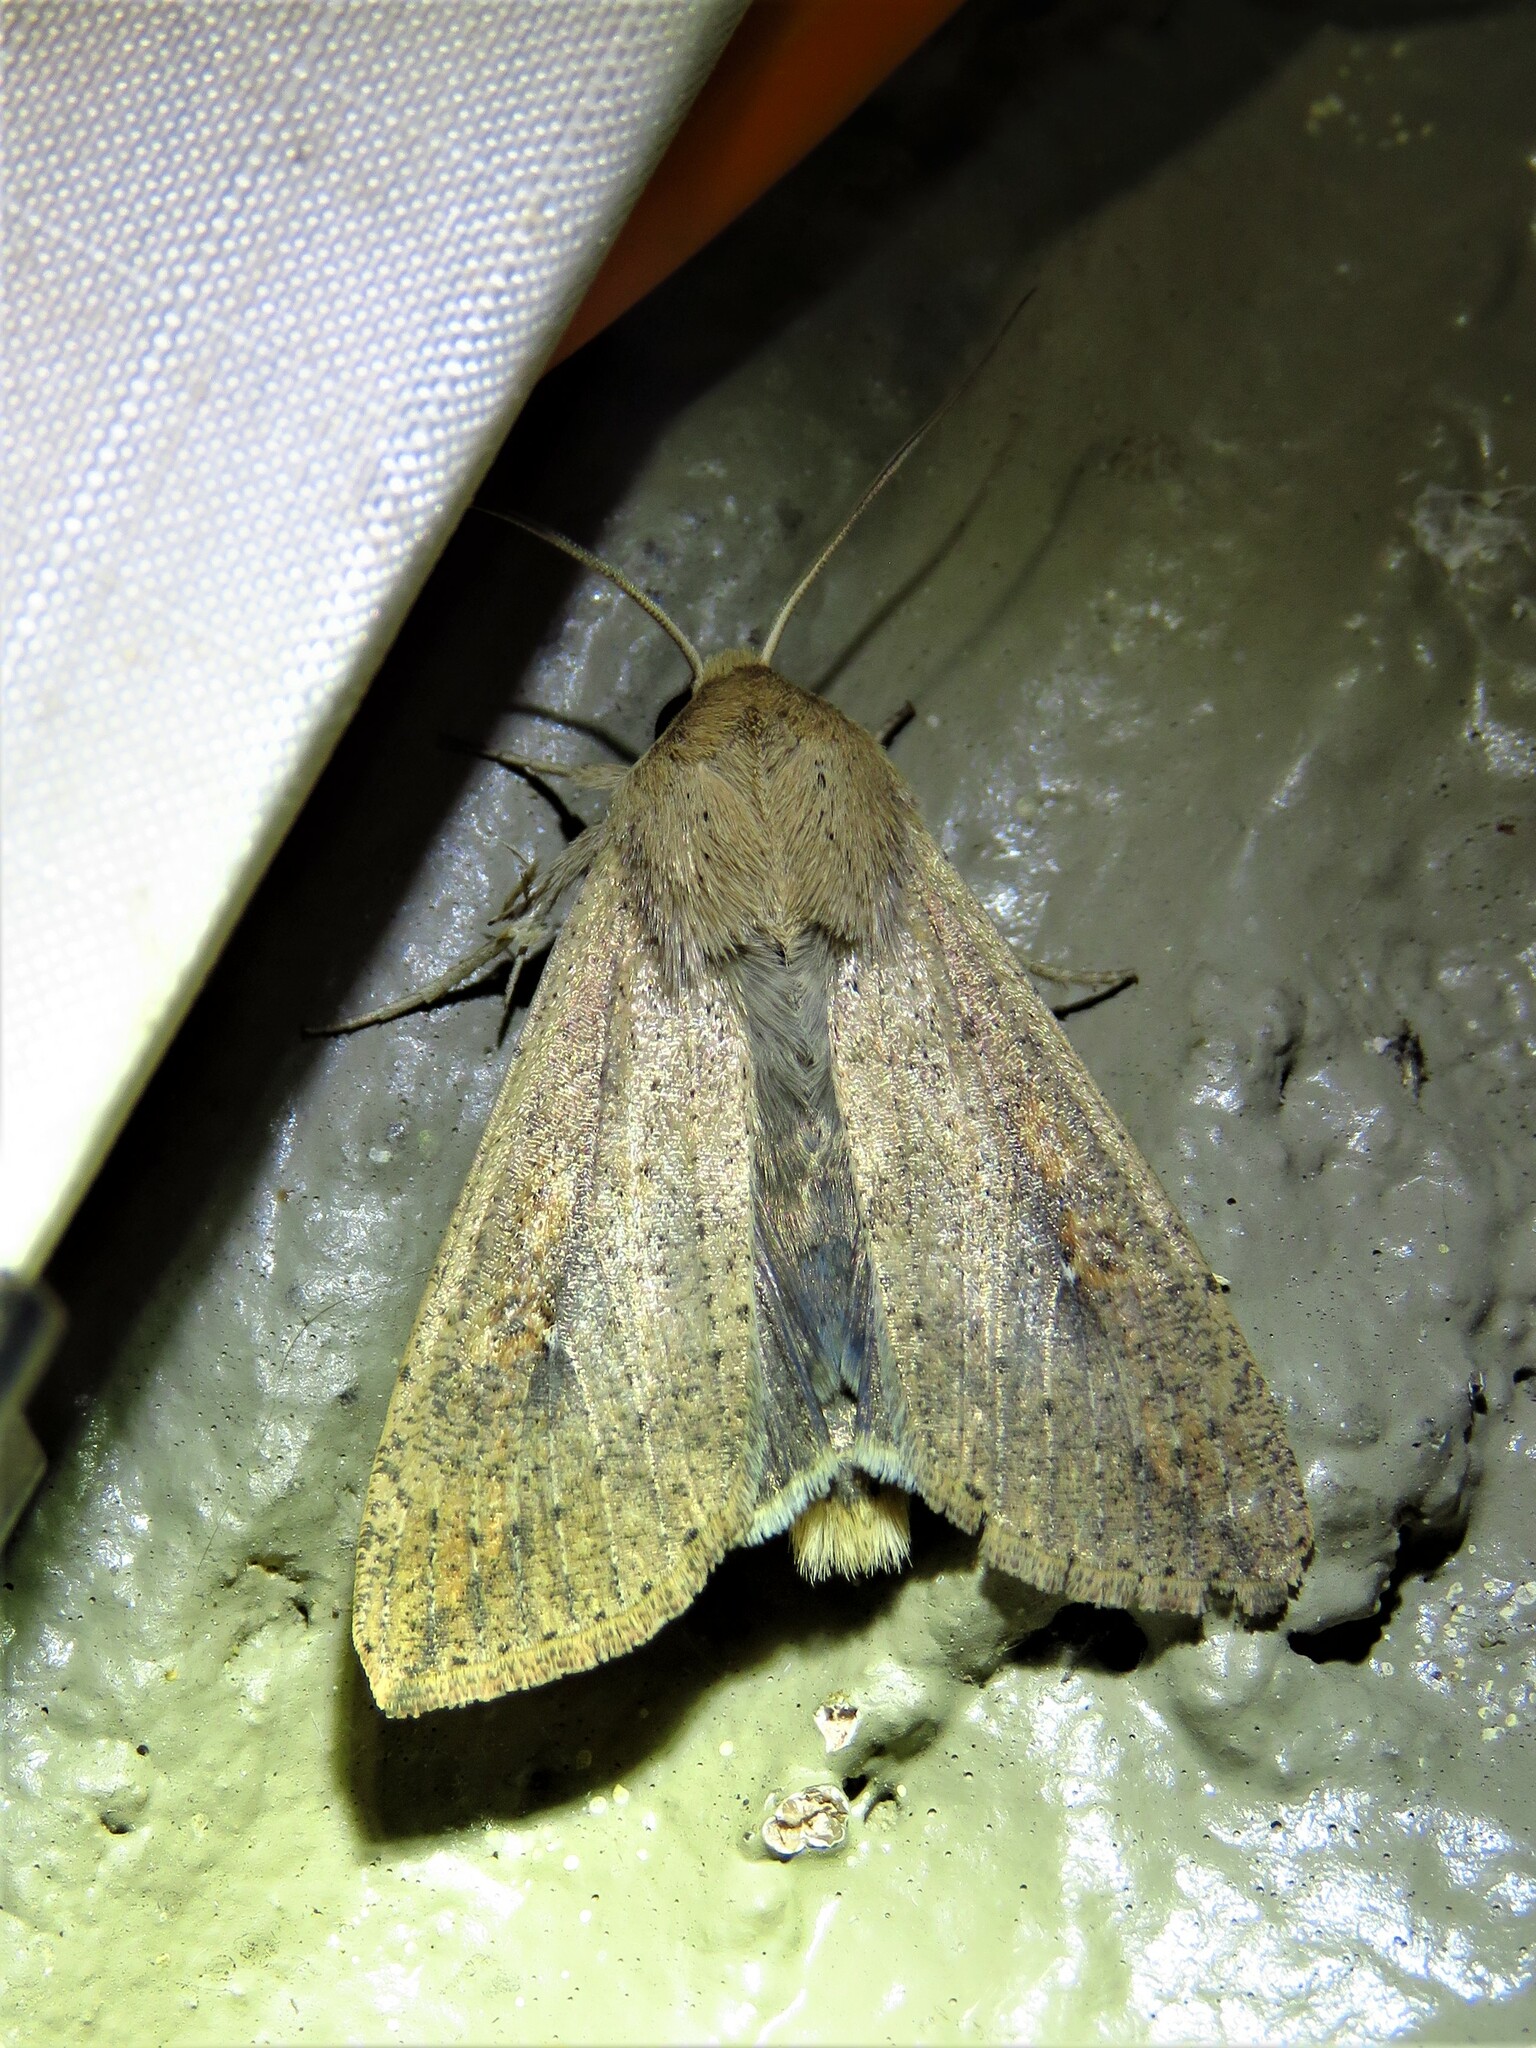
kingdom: Animalia
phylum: Arthropoda
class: Insecta
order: Lepidoptera
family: Noctuidae
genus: Mythimna
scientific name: Mythimna unipuncta
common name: White-speck
